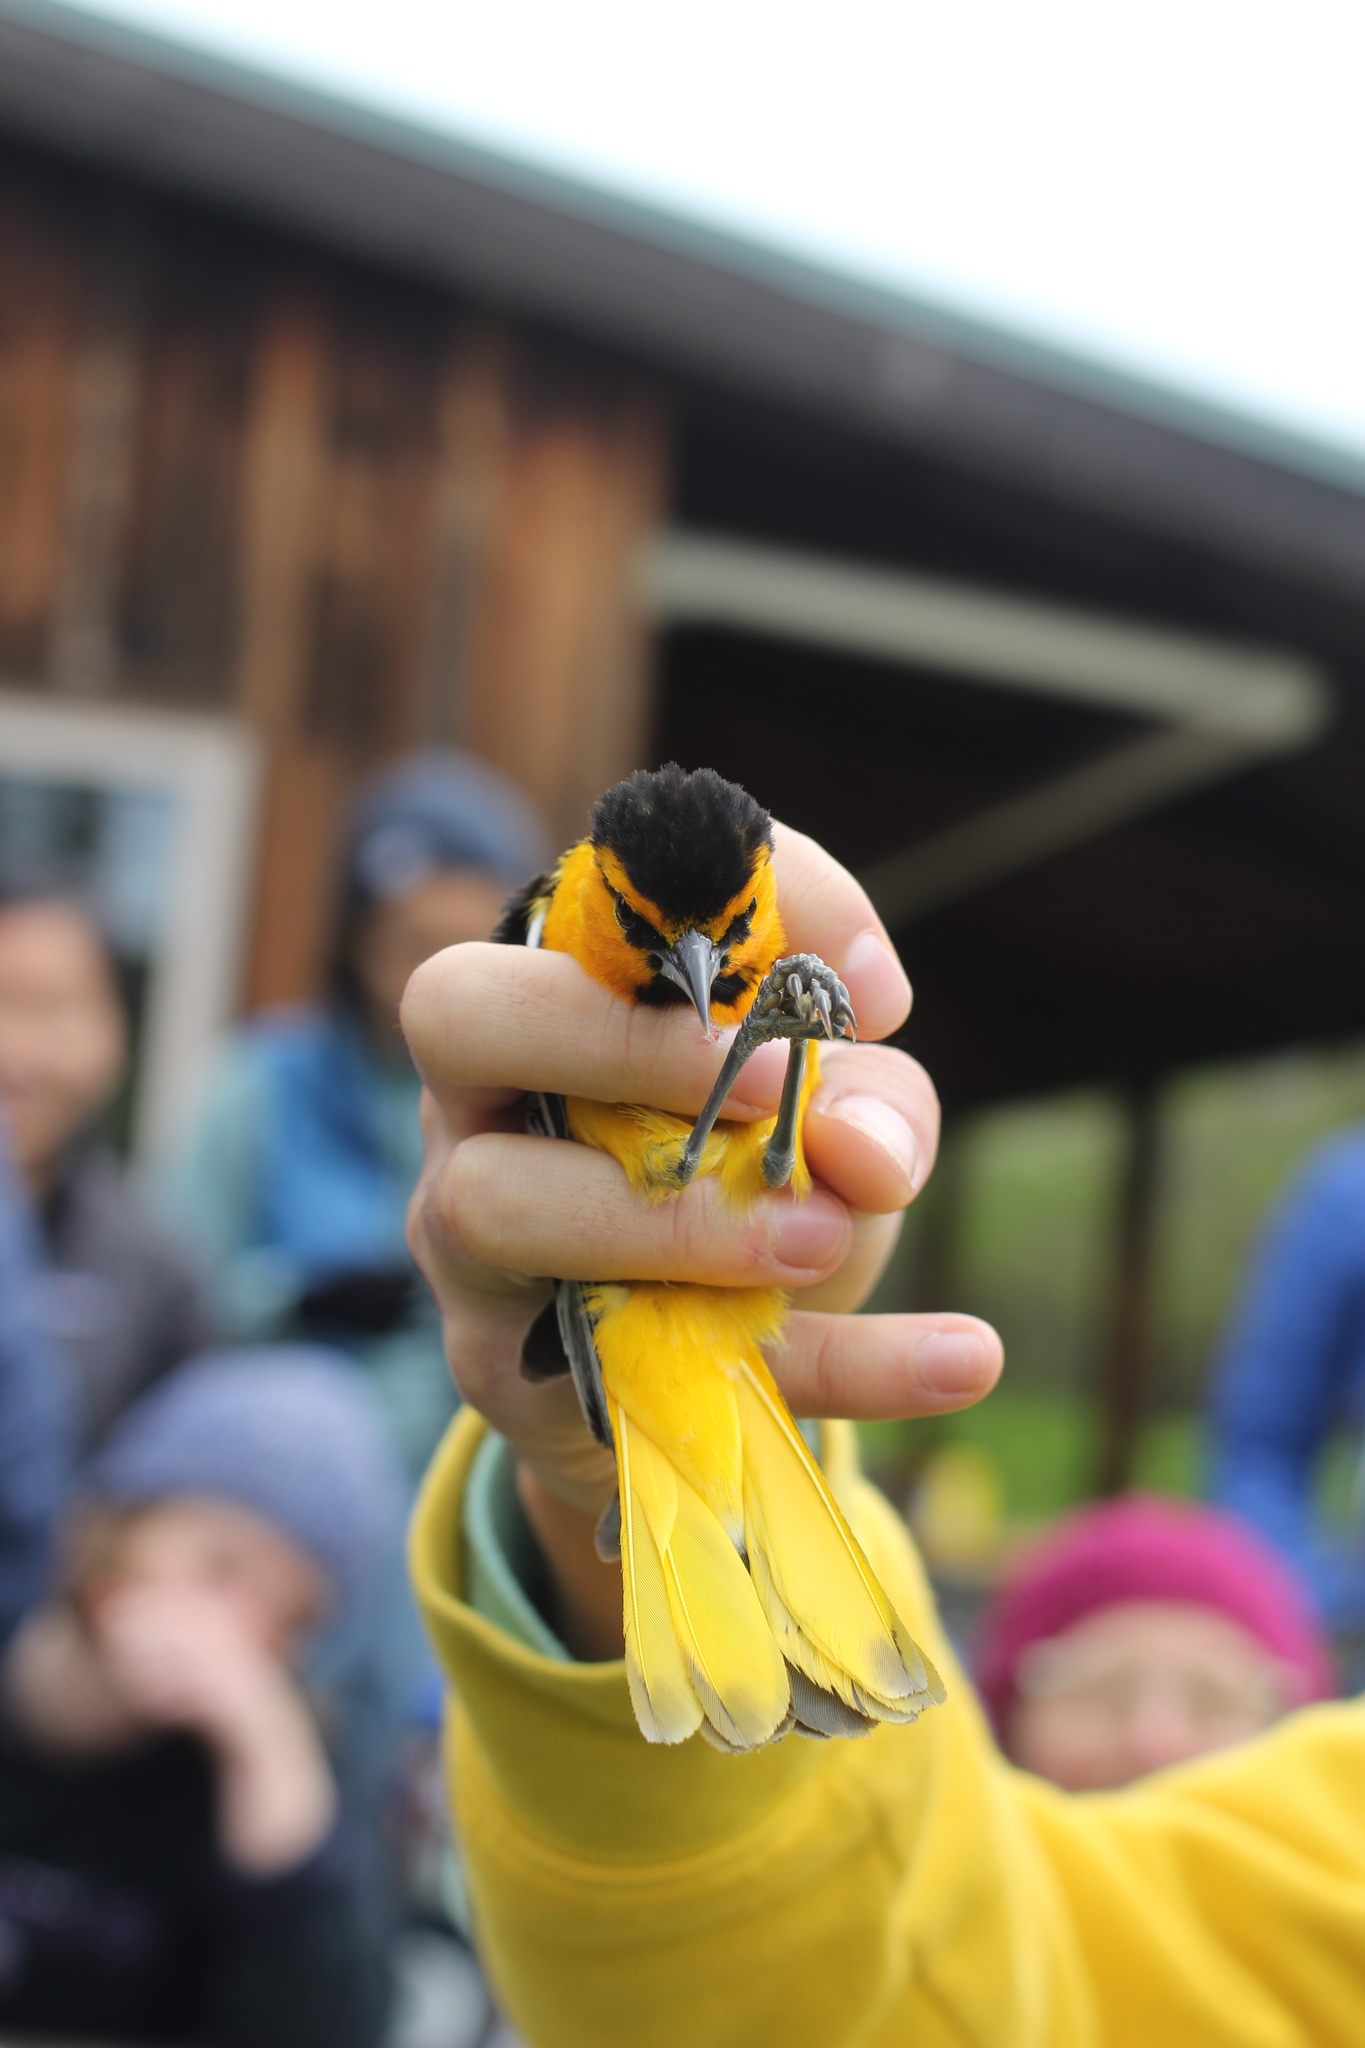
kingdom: Animalia
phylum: Chordata
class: Aves
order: Passeriformes
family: Icteridae
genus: Icterus
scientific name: Icterus bullockii
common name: Bullock's oriole
